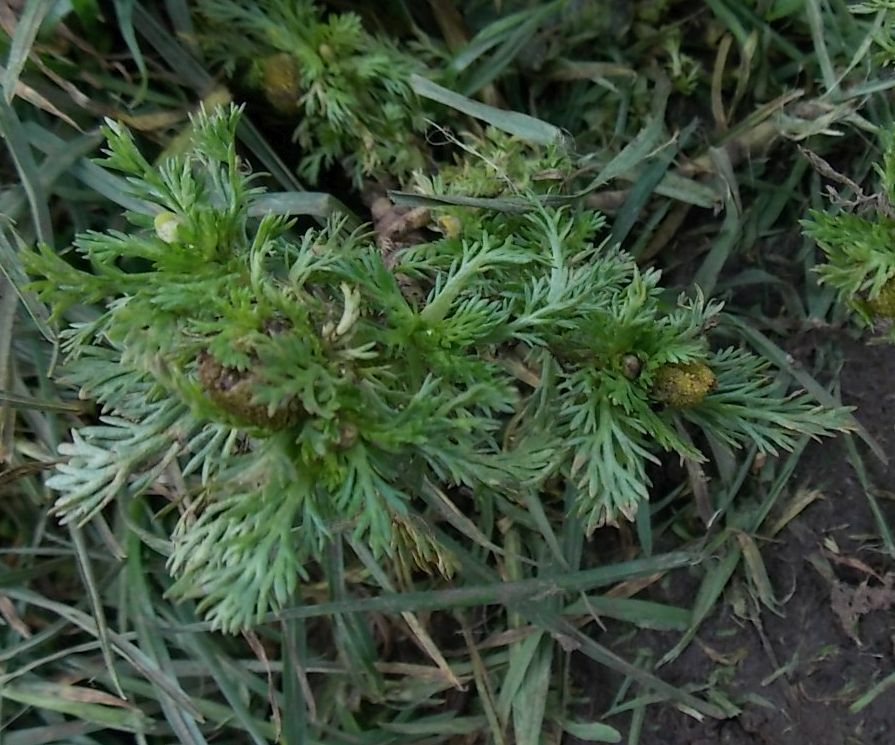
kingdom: Plantae
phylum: Tracheophyta
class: Magnoliopsida
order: Asterales
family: Asteraceae
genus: Matricaria
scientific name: Matricaria discoidea
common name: Disc mayweed
